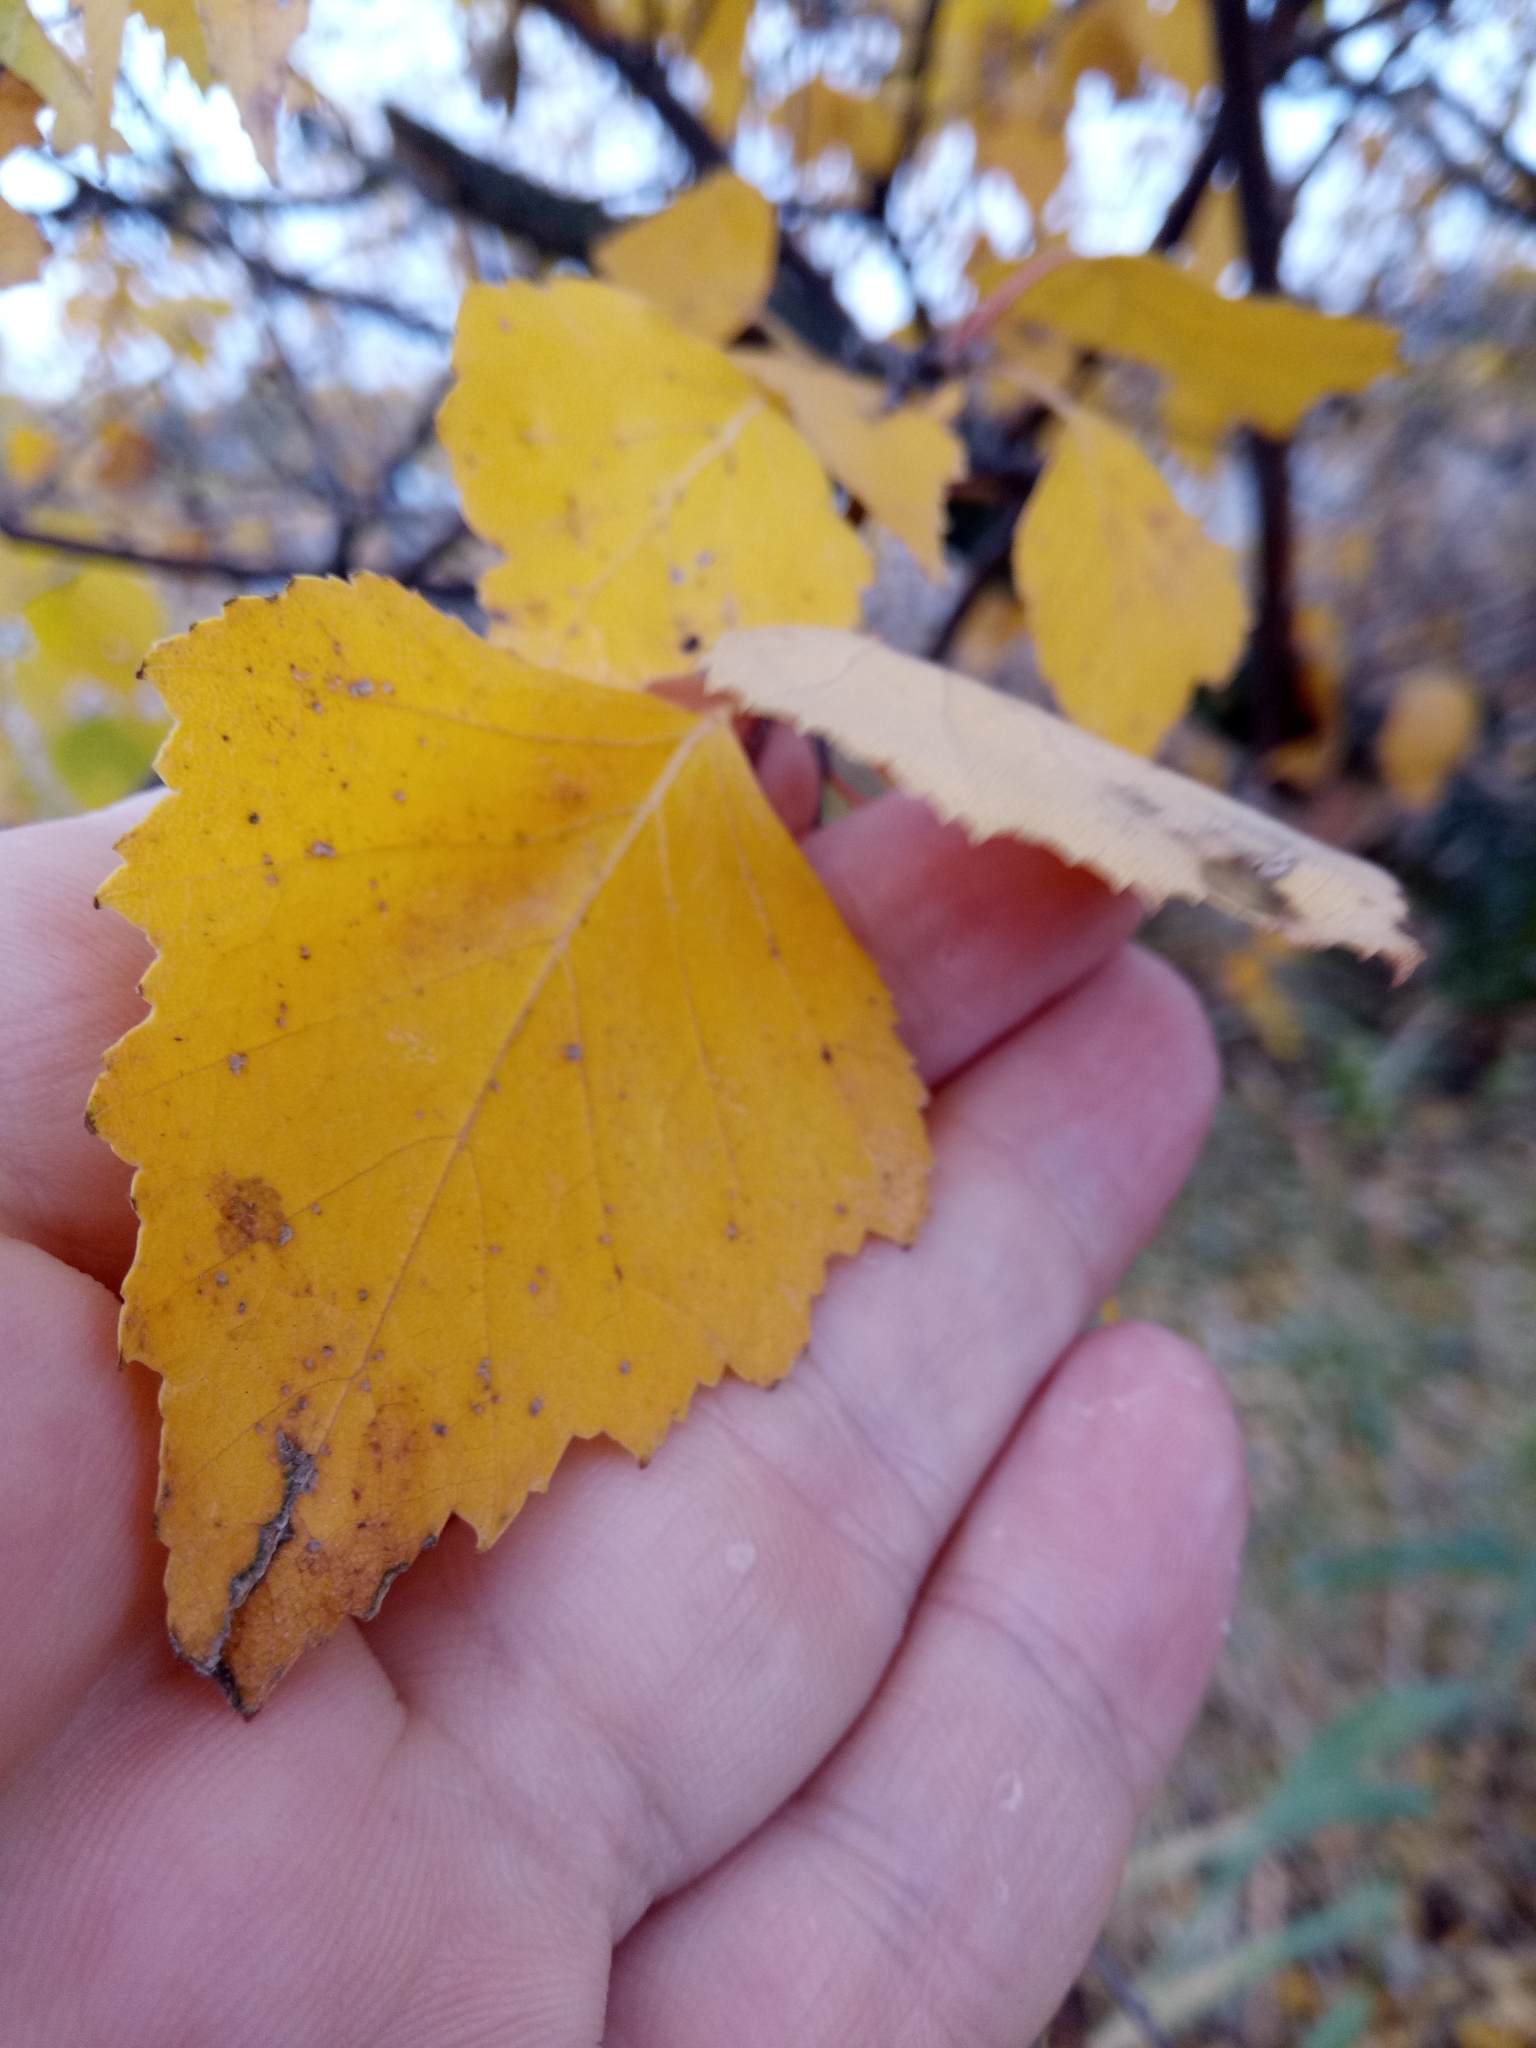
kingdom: Plantae
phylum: Tracheophyta
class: Magnoliopsida
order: Fagales
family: Betulaceae
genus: Betula
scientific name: Betula pendula
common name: Silver birch
